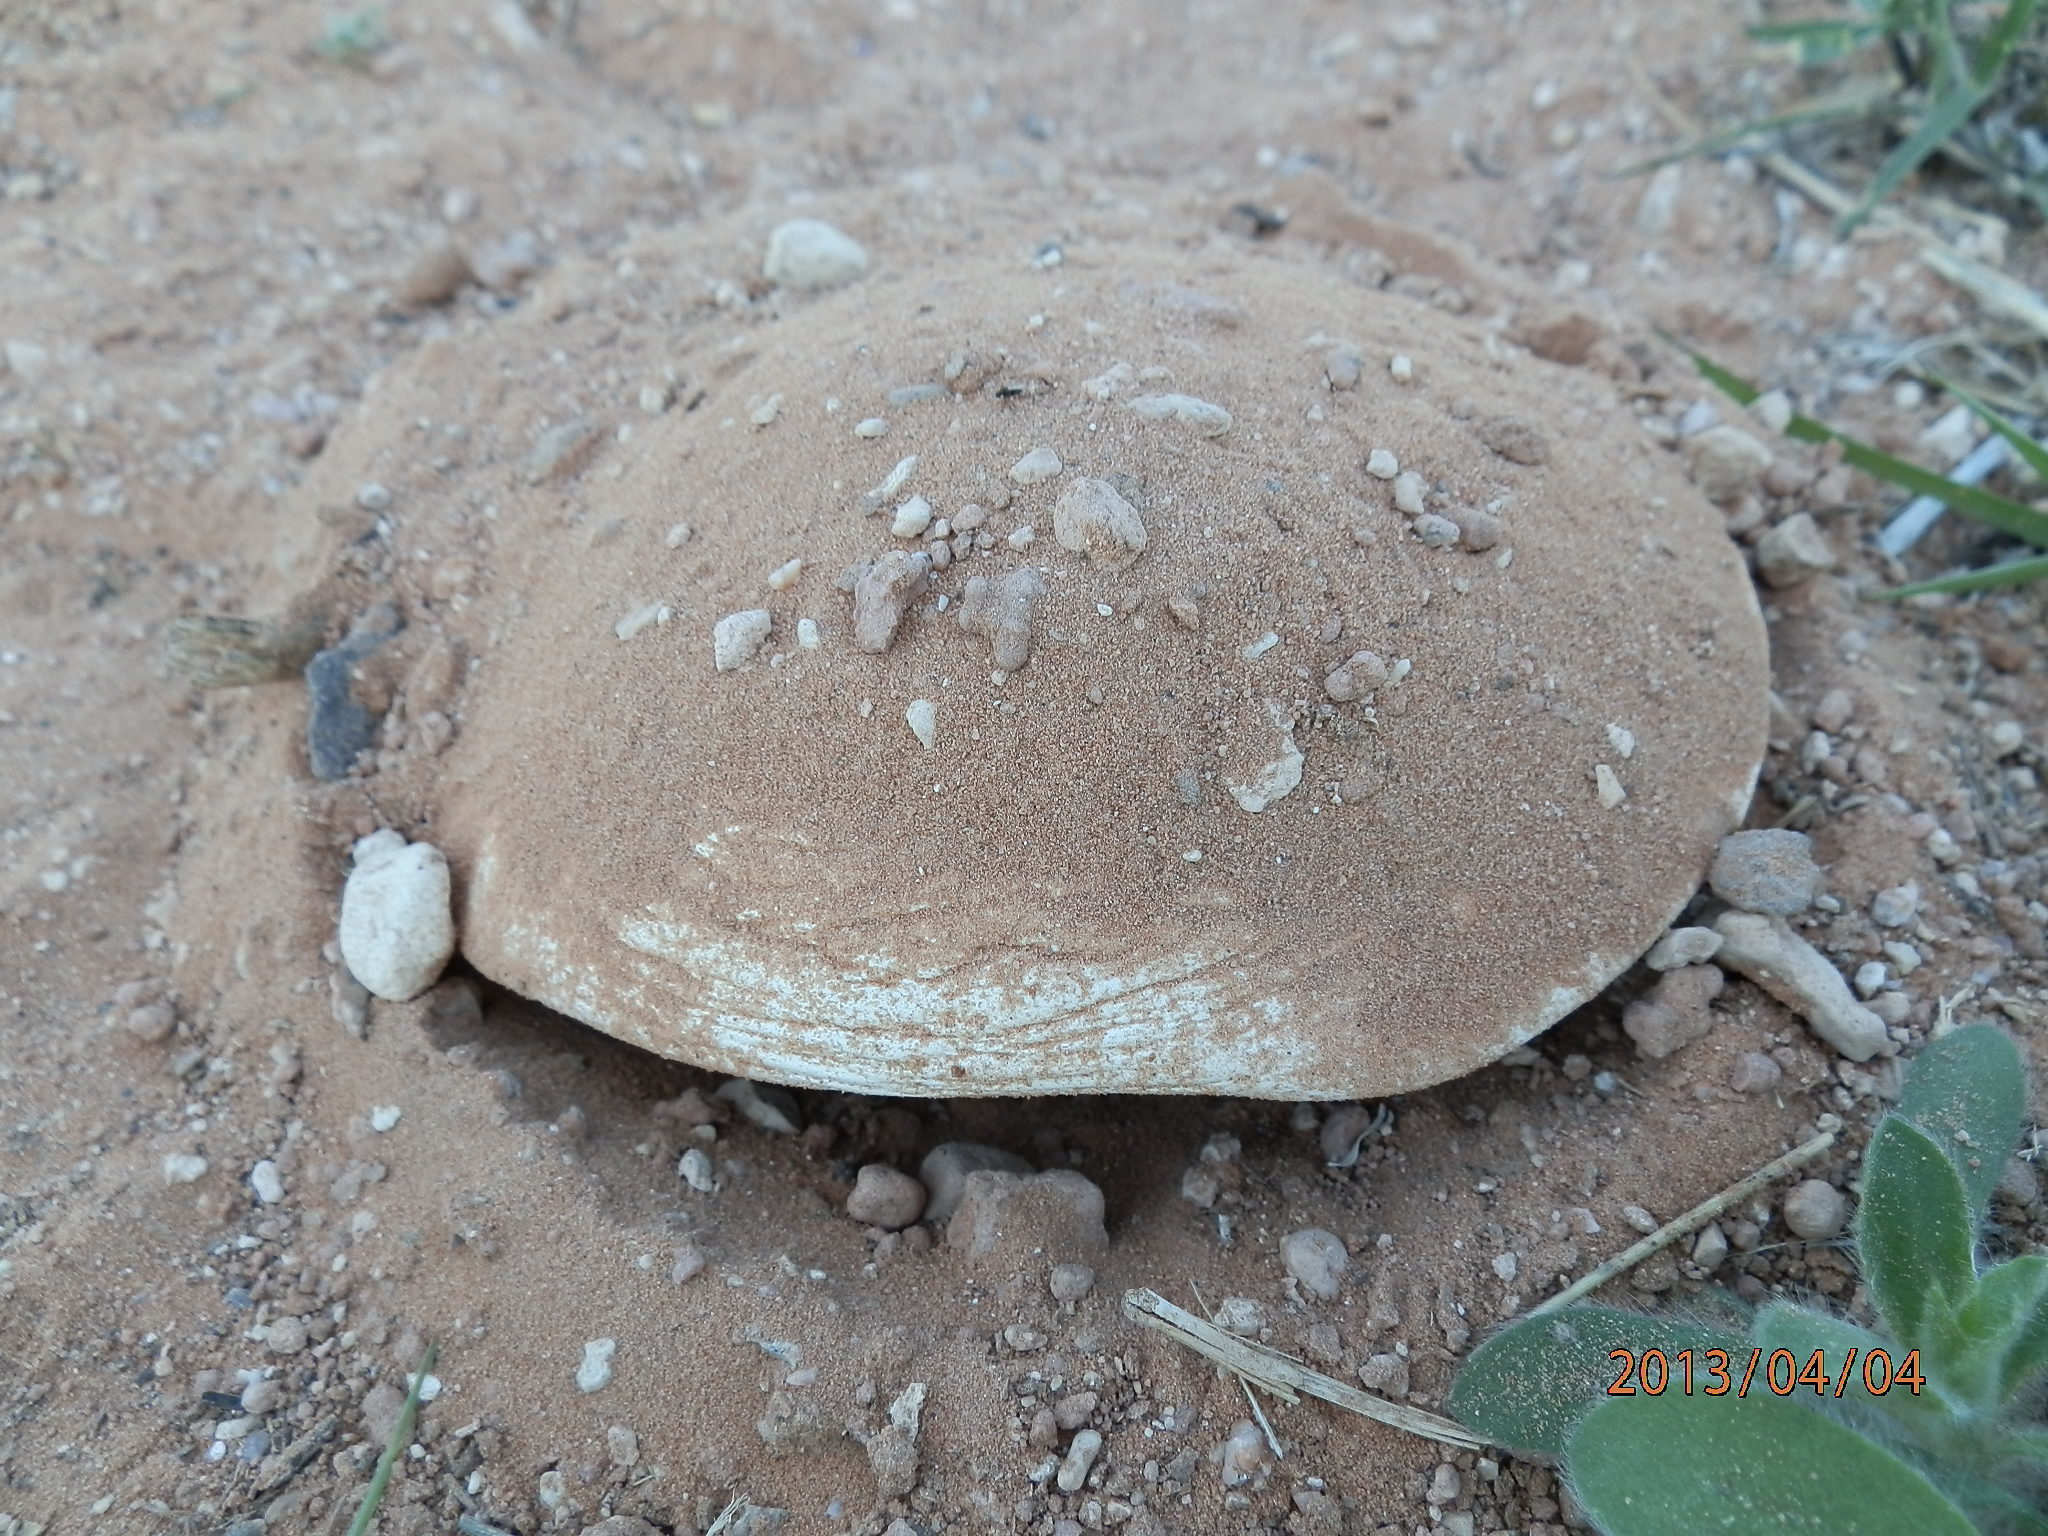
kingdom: Fungi
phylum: Basidiomycota
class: Agaricomycetes
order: Agaricales
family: Agaricaceae
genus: Agaricus
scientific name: Agaricus bitorquis
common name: Pavement mushroom
